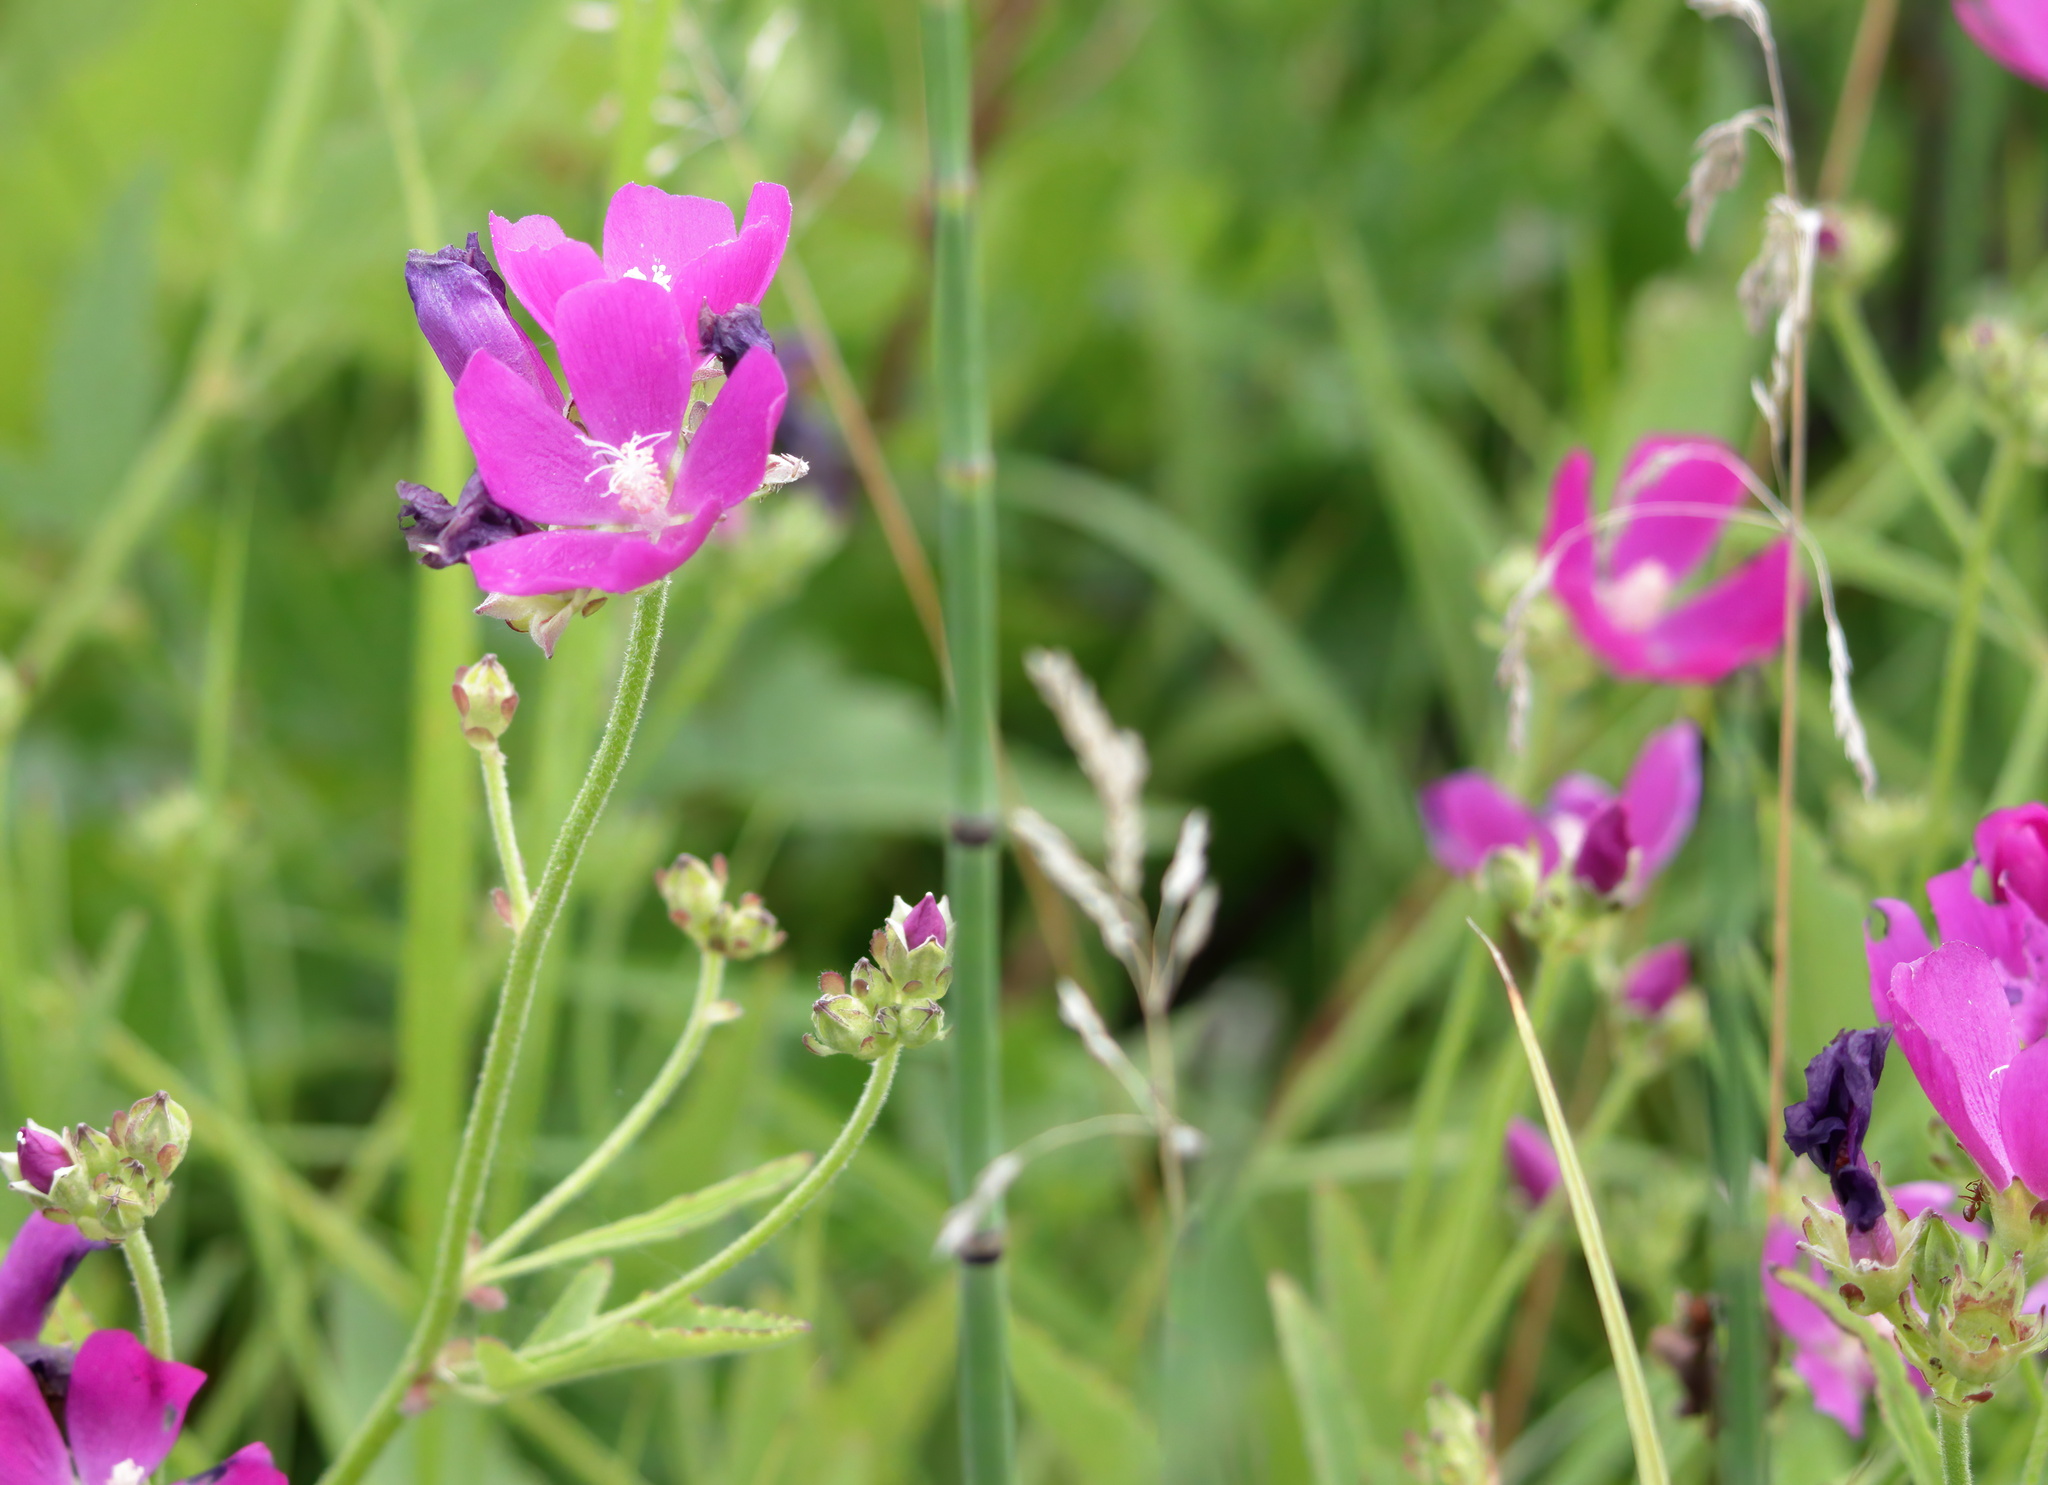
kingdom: Plantae
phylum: Tracheophyta
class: Magnoliopsida
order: Malvales
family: Malvaceae
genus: Callirhoe
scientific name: Callirhoe triangulata
